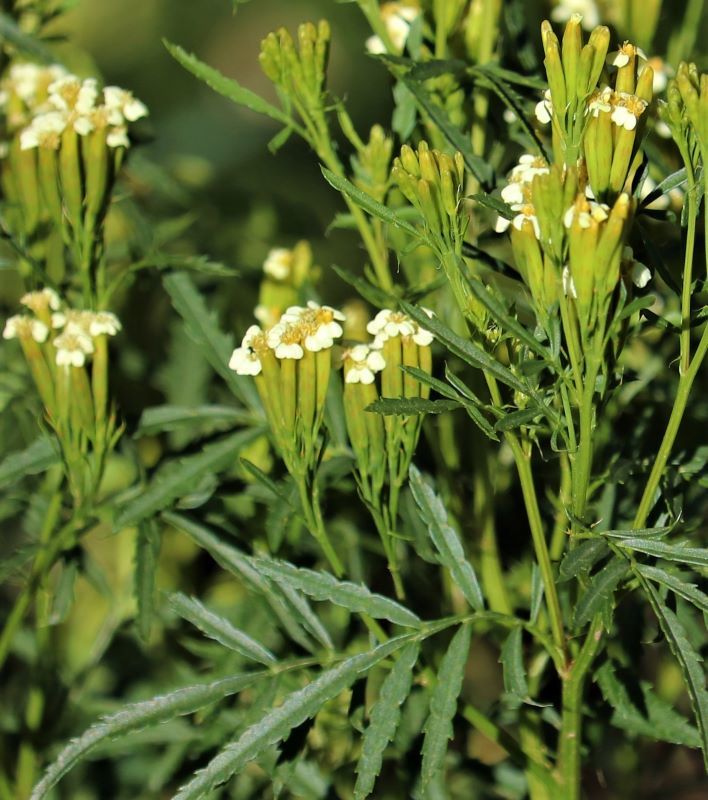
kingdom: Plantae
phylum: Tracheophyta
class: Magnoliopsida
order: Asterales
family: Asteraceae
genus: Tagetes
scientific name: Tagetes minuta
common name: Muster john henry
